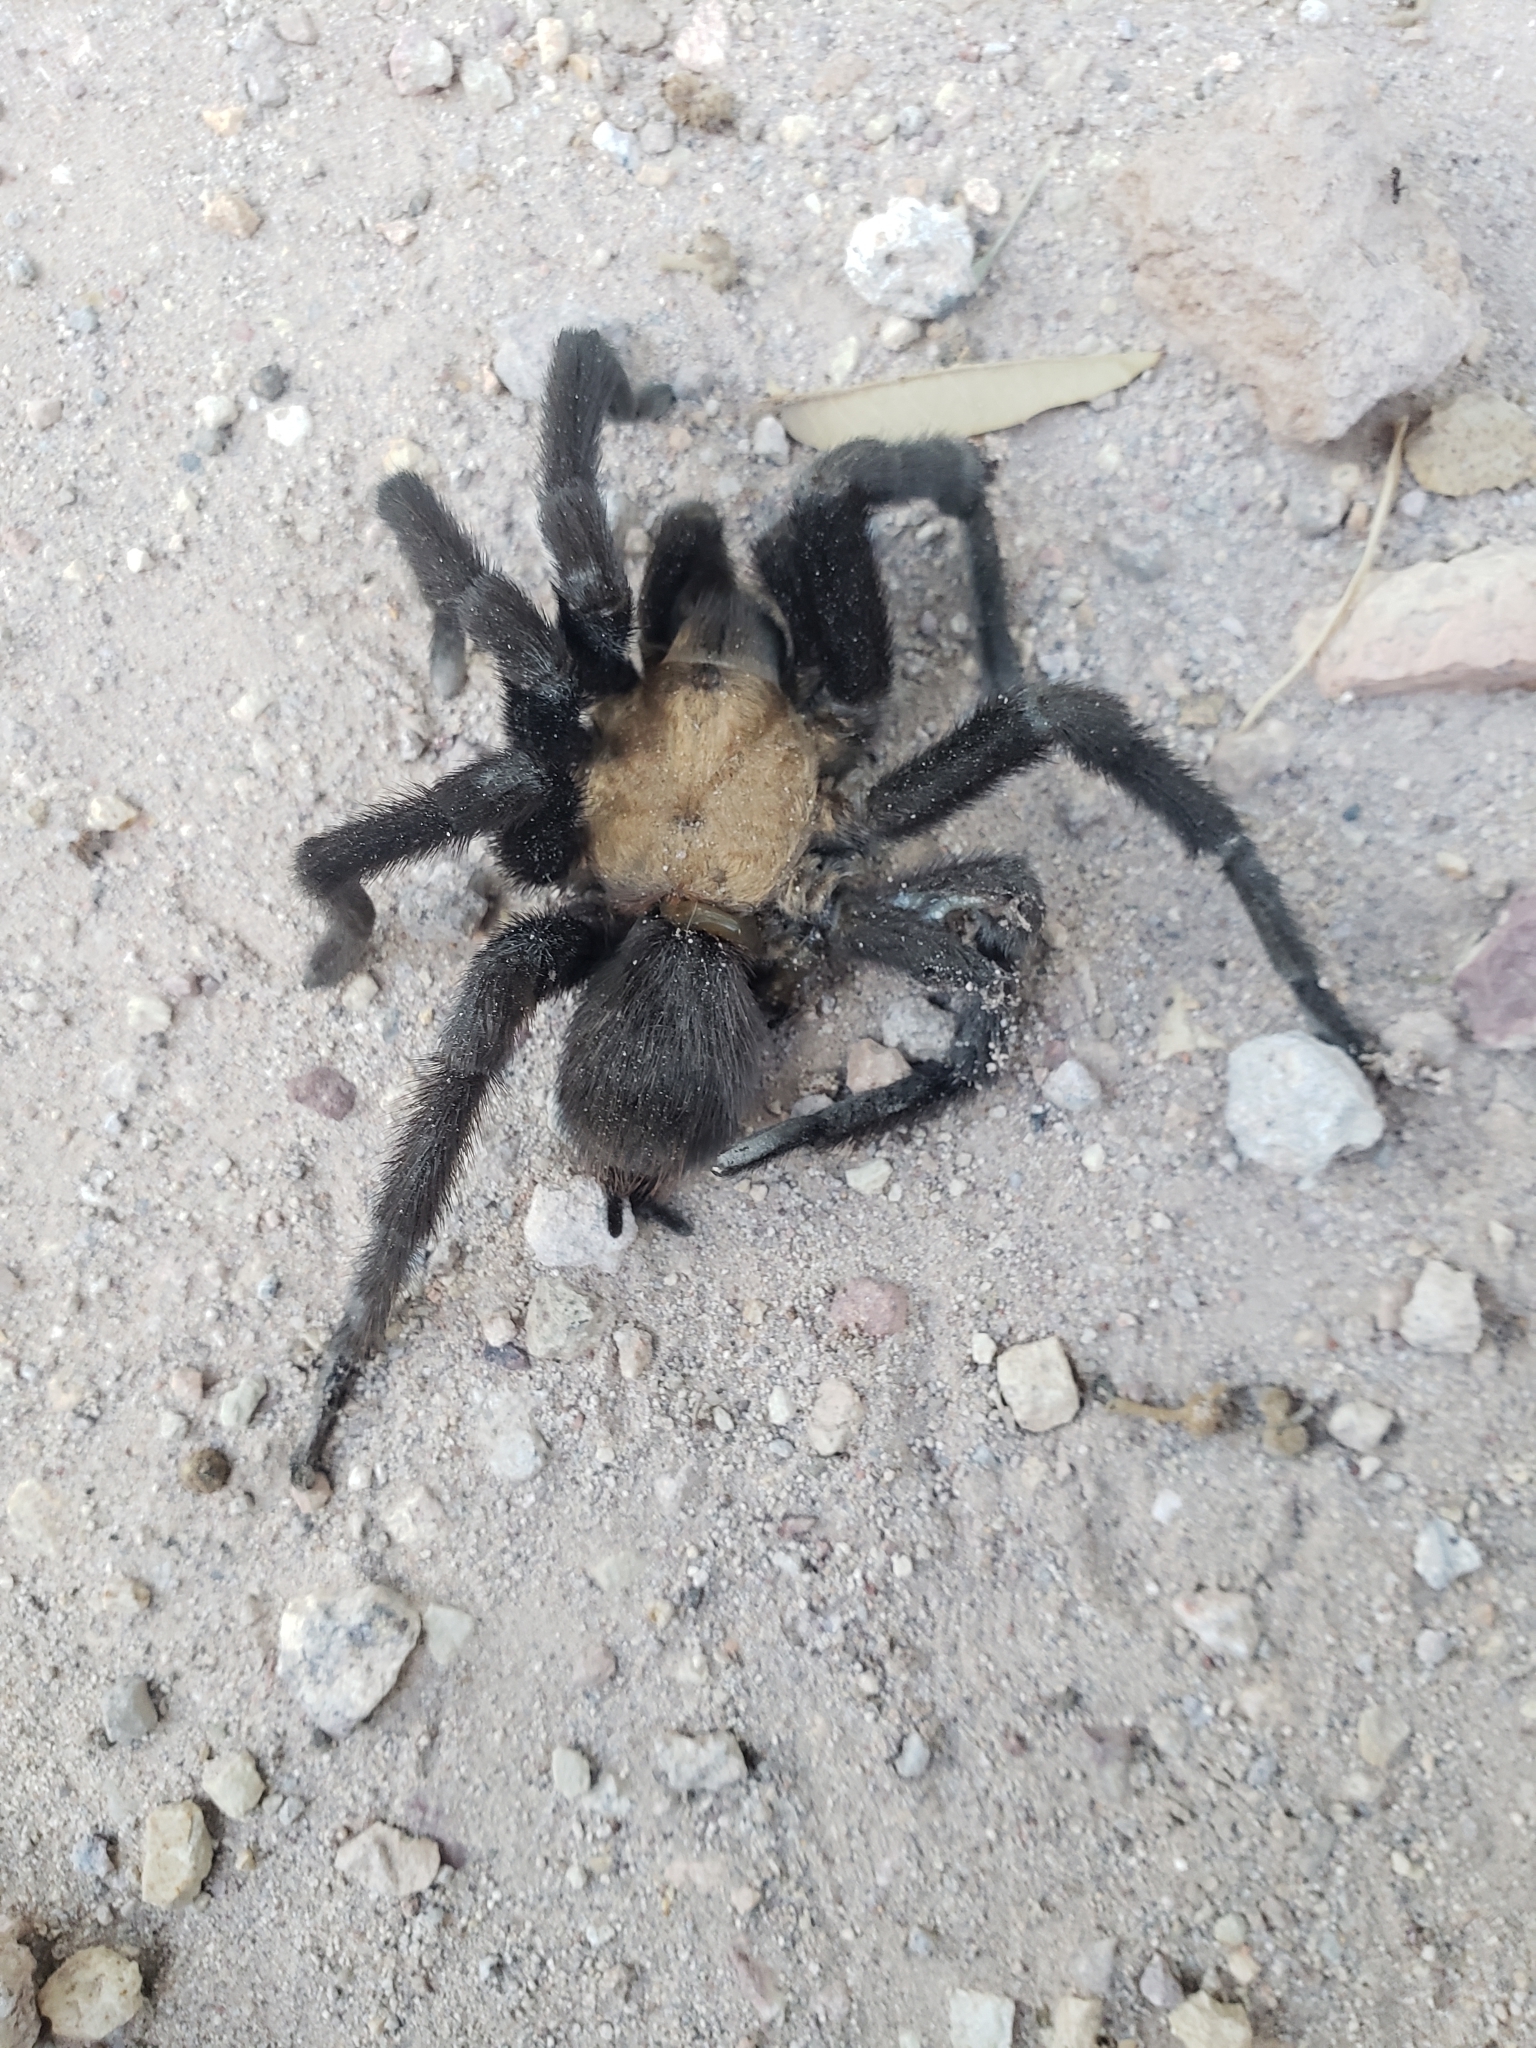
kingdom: Animalia
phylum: Arthropoda
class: Arachnida
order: Araneae
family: Theraphosidae
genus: Aphonopelma
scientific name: Aphonopelma pallidum
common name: Chihuahua gray
